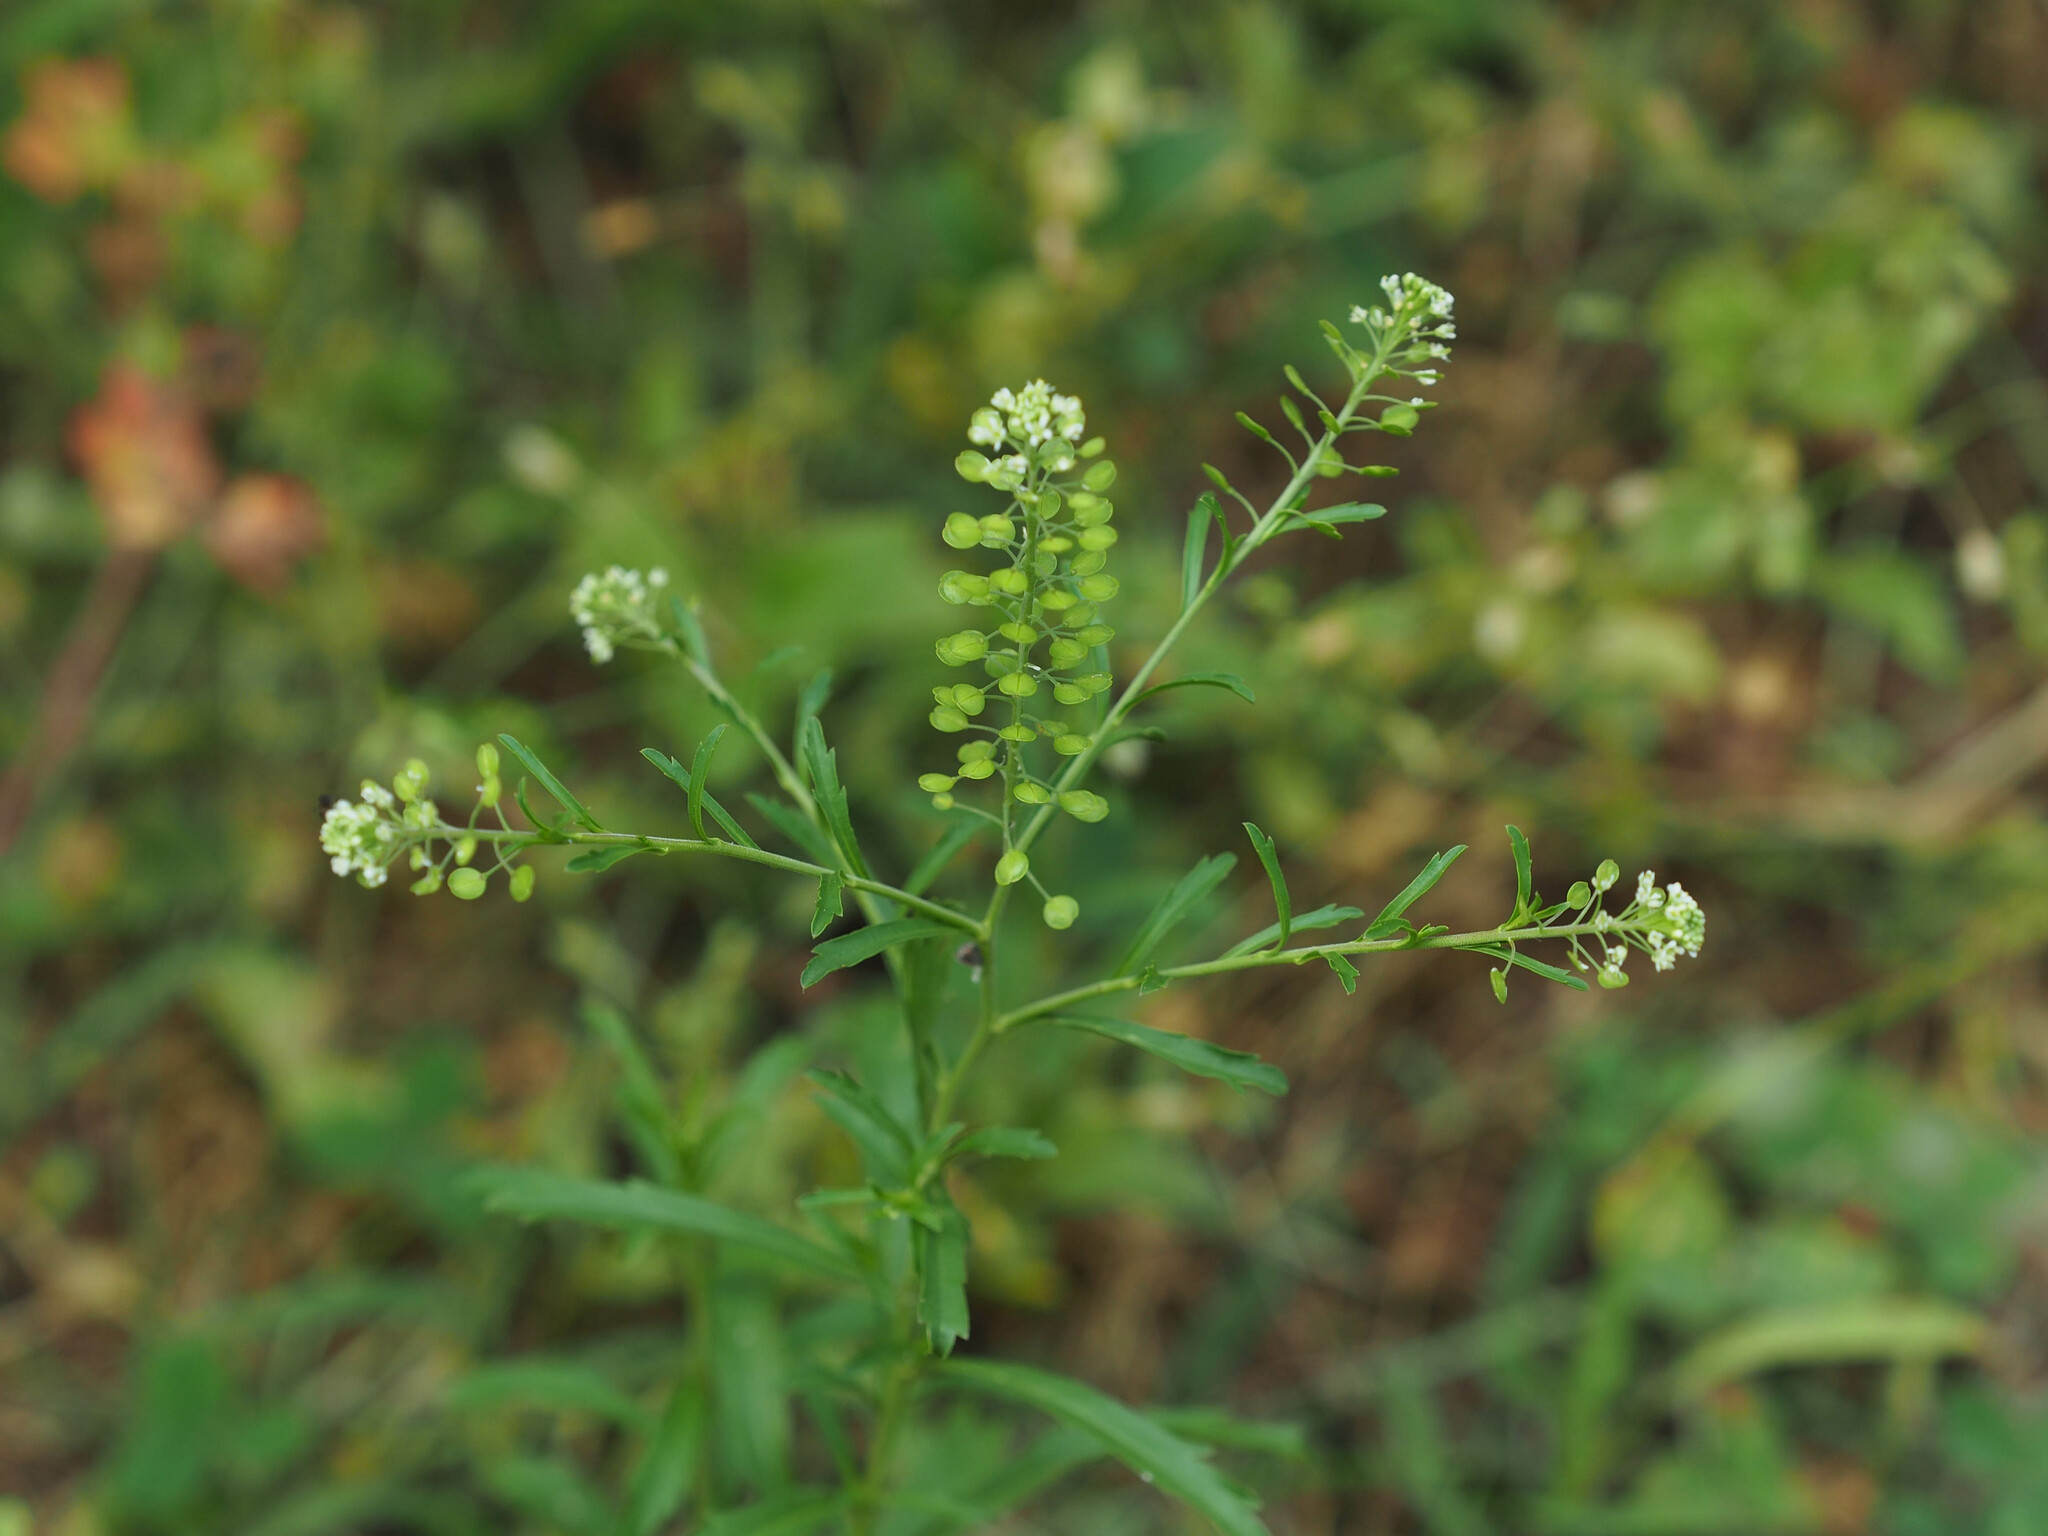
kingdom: Plantae
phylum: Tracheophyta
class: Magnoliopsida
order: Brassicales
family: Brassicaceae
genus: Lepidium
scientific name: Lepidium virginicum
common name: Least pepperwort
